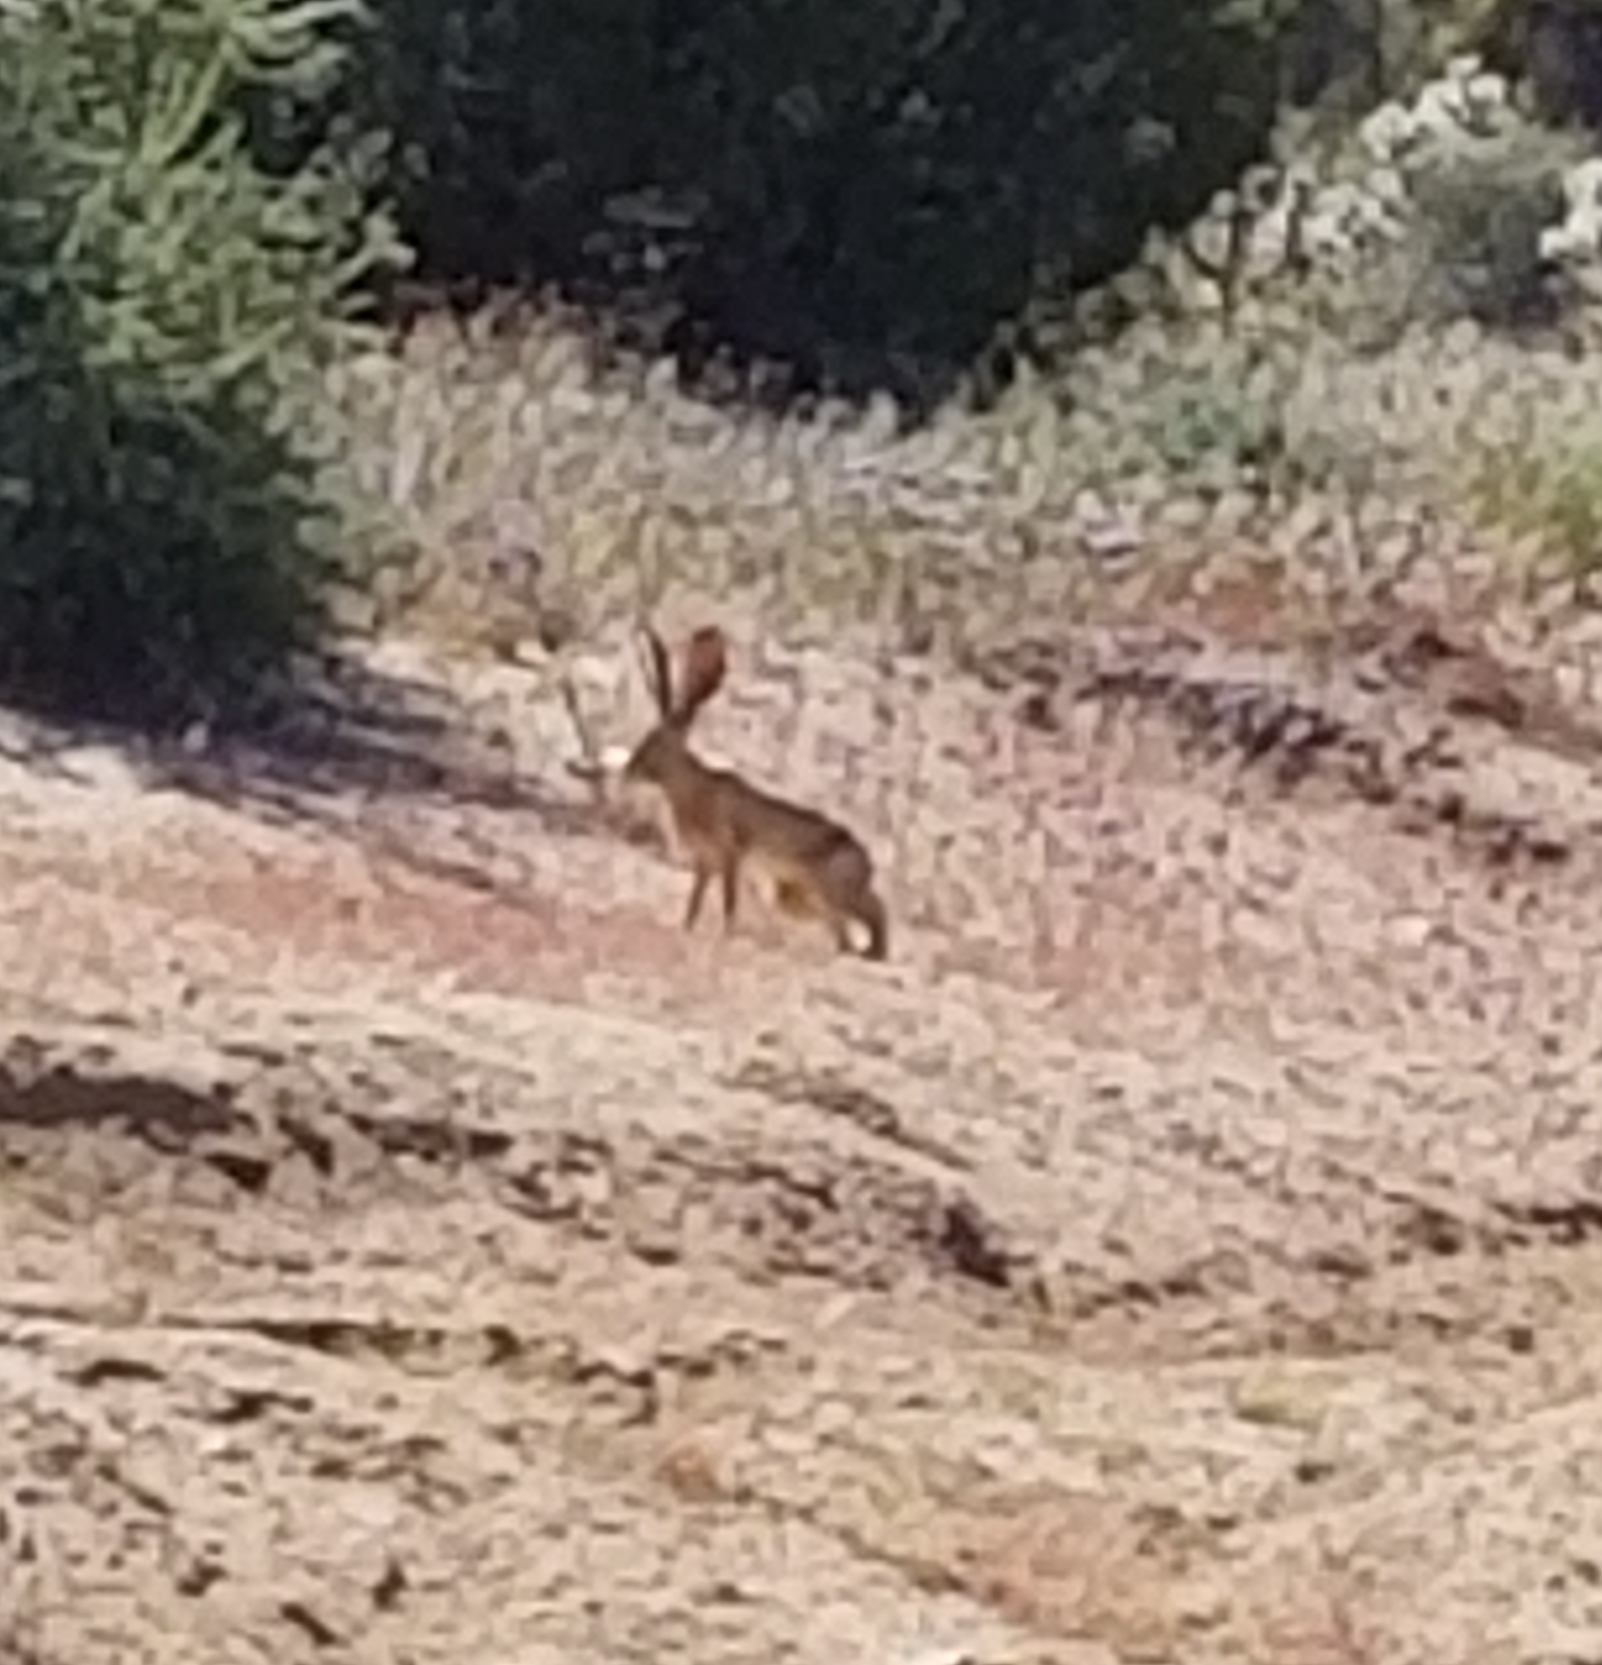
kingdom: Animalia
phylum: Chordata
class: Mammalia
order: Lagomorpha
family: Leporidae
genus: Lepus
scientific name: Lepus californicus
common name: Black-tailed jackrabbit
